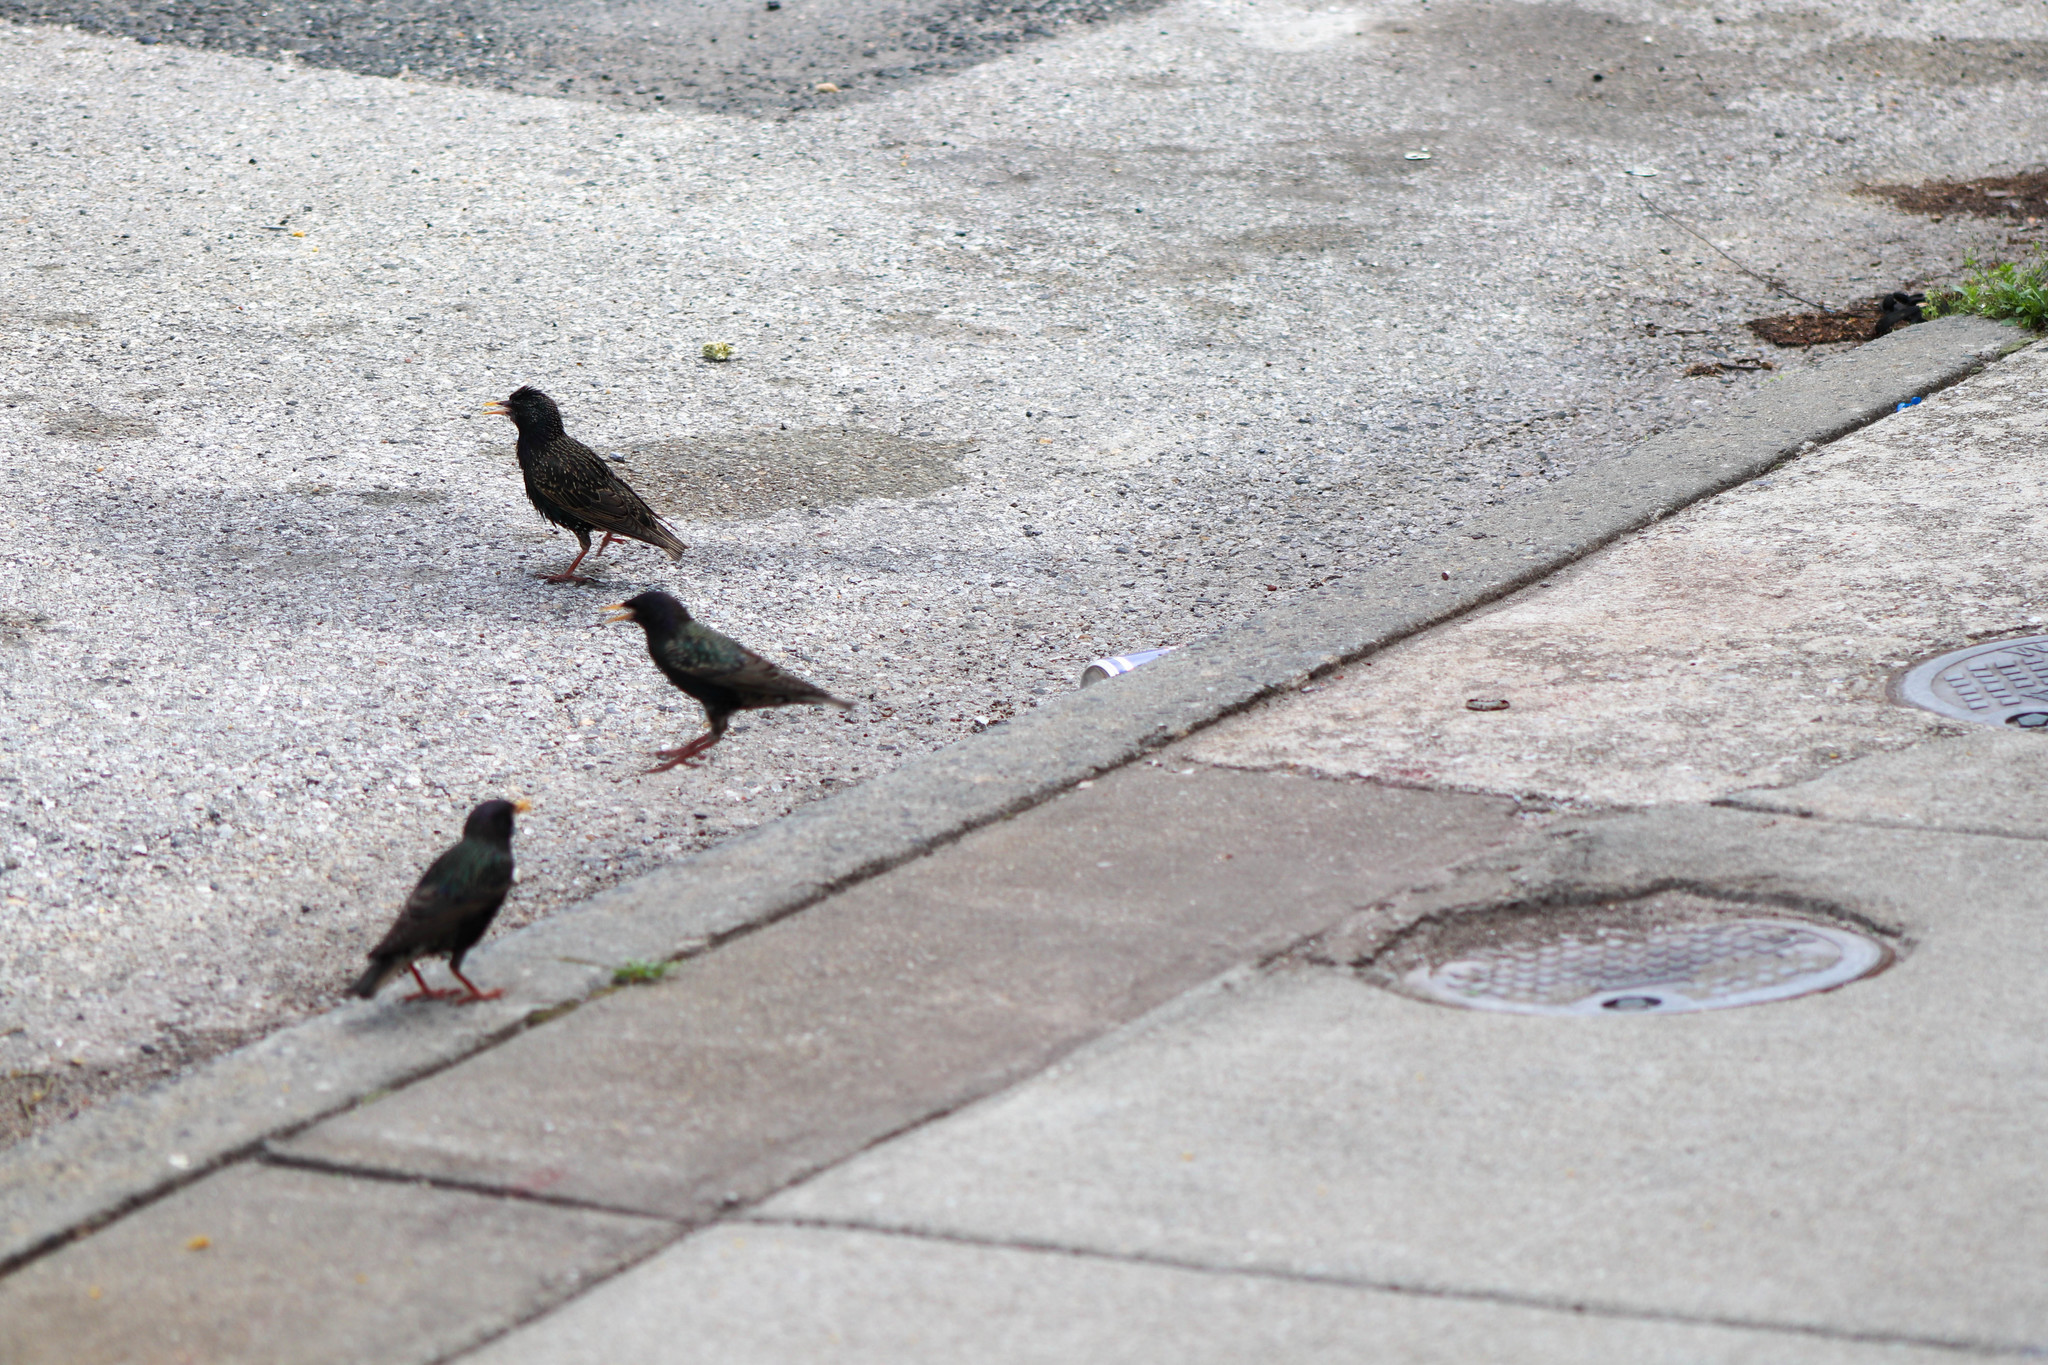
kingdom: Animalia
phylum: Chordata
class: Aves
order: Passeriformes
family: Sturnidae
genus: Sturnus
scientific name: Sturnus vulgaris
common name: Common starling
